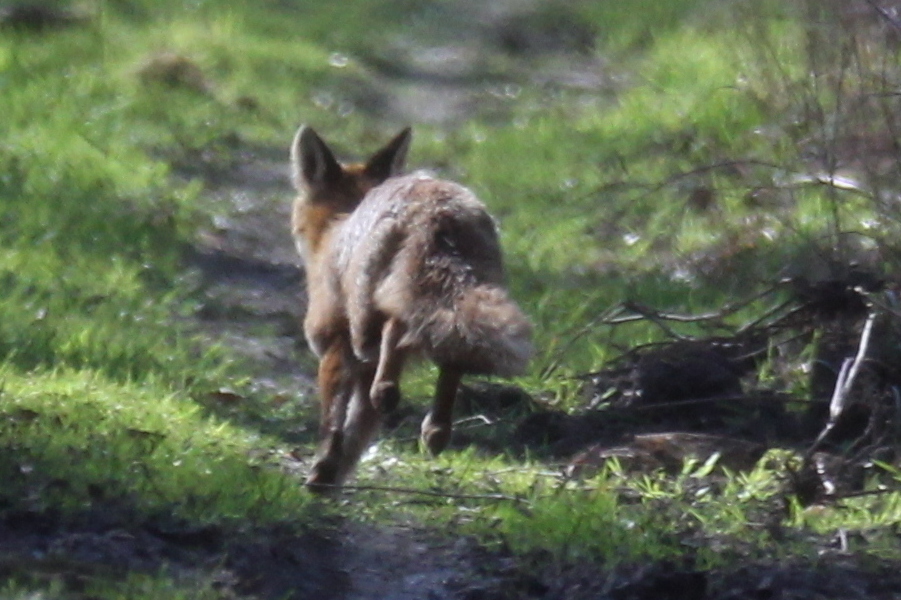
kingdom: Animalia
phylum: Chordata
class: Mammalia
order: Carnivora
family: Canidae
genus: Vulpes
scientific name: Vulpes vulpes
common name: Red fox
